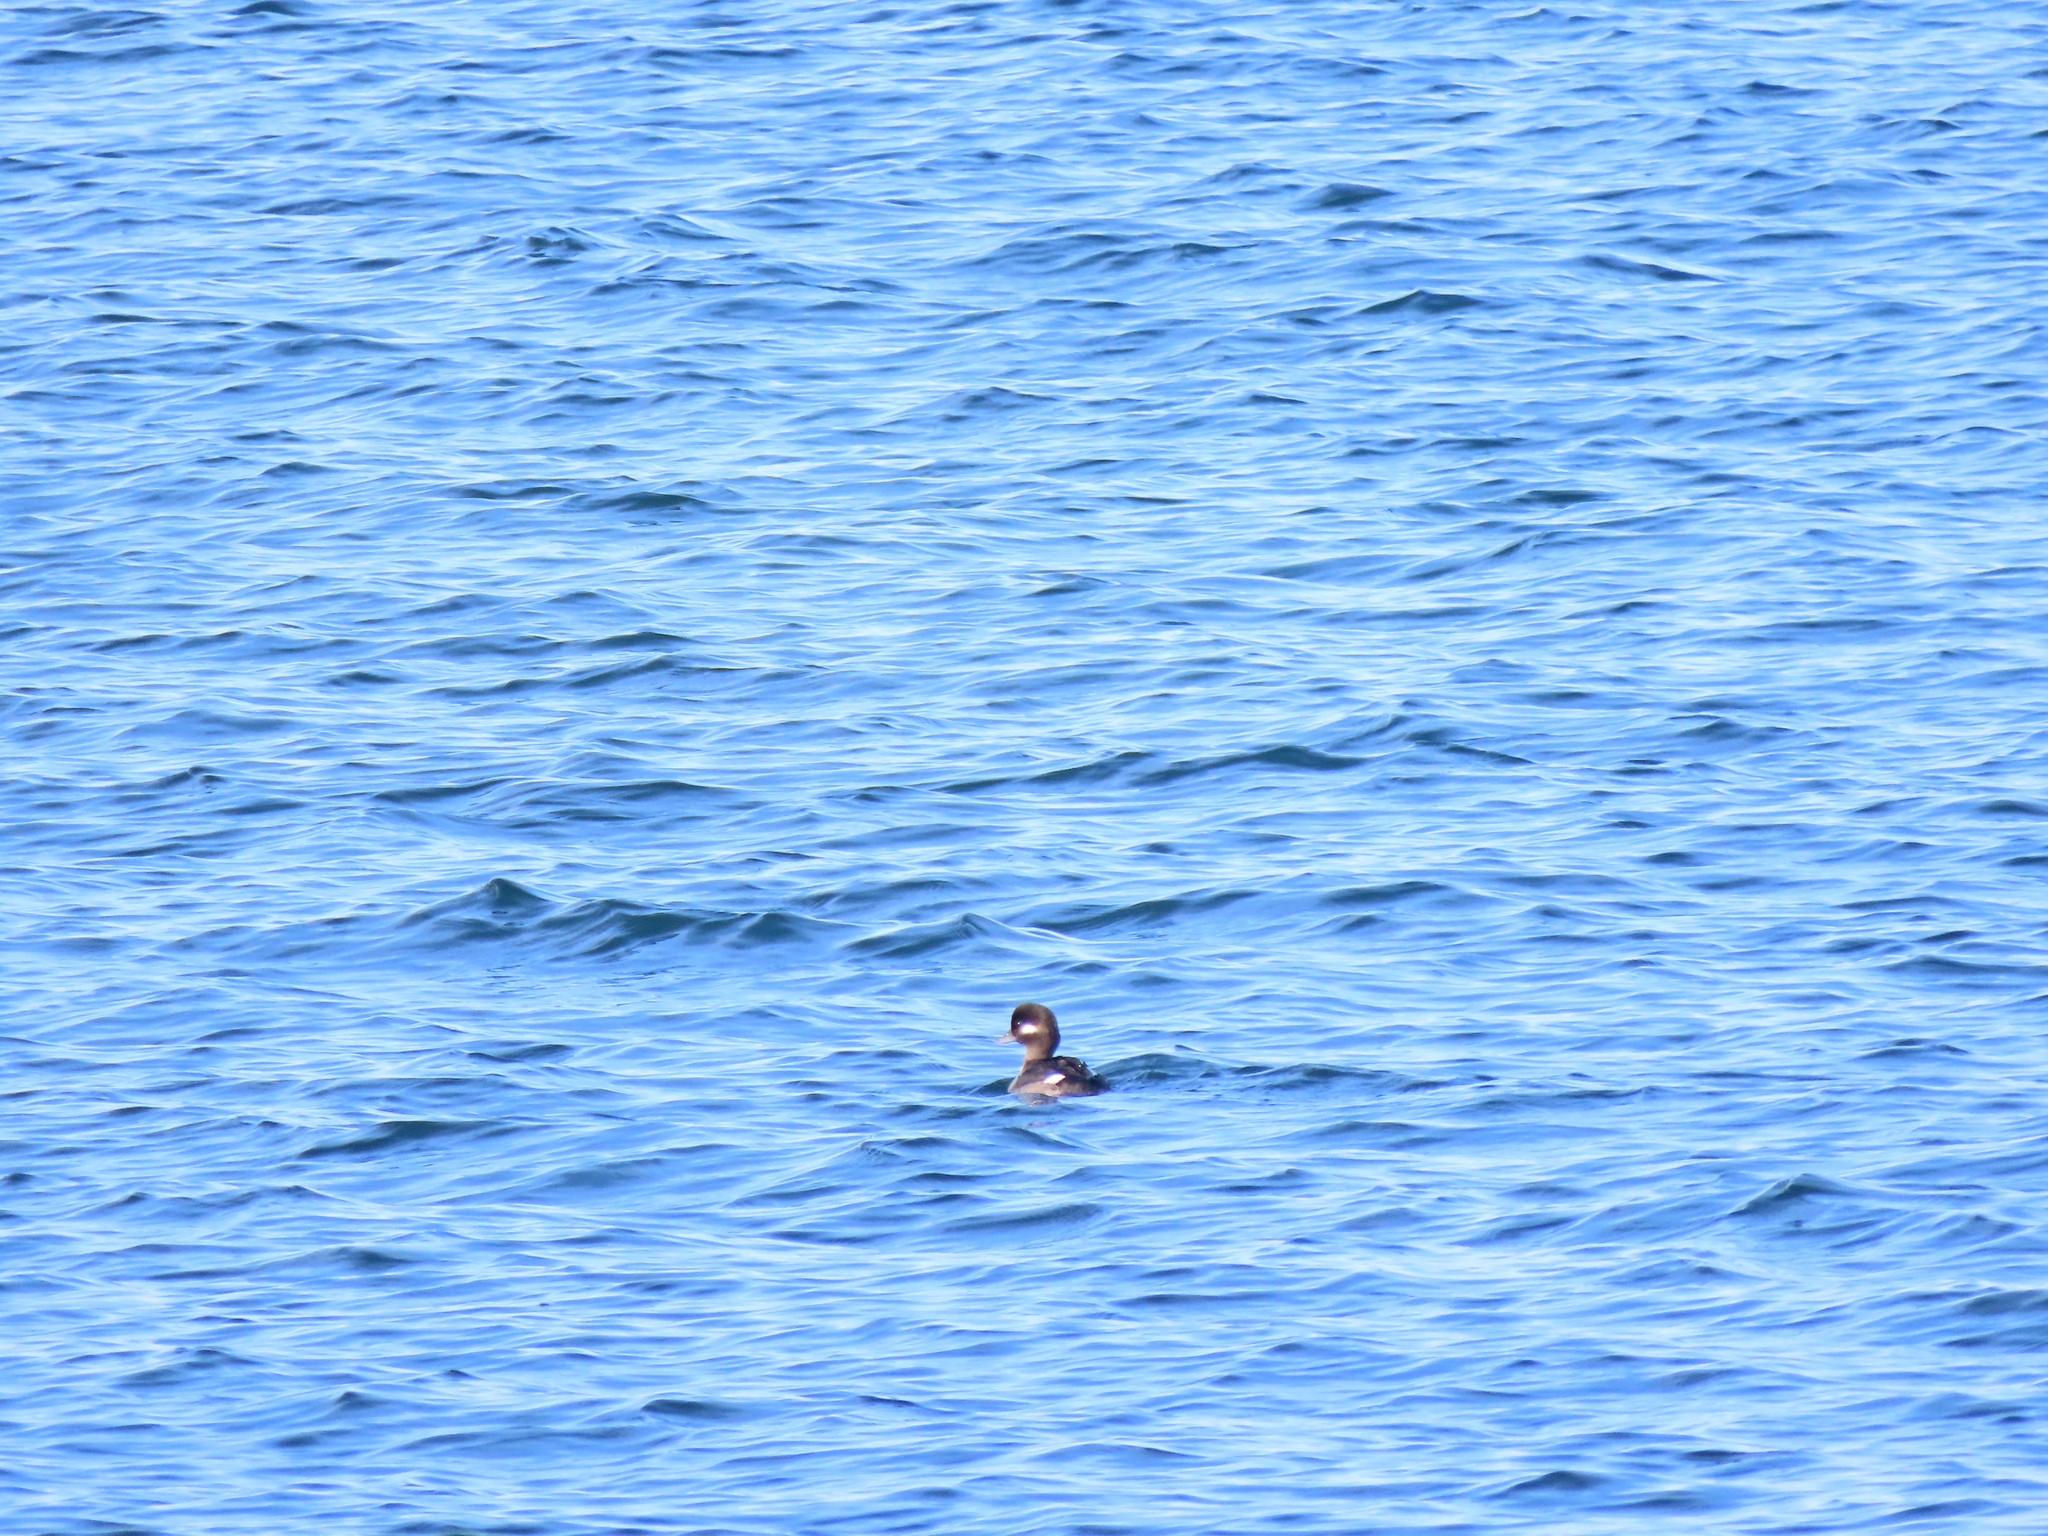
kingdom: Animalia
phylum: Chordata
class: Aves
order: Anseriformes
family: Anatidae
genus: Bucephala
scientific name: Bucephala albeola
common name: Bufflehead
